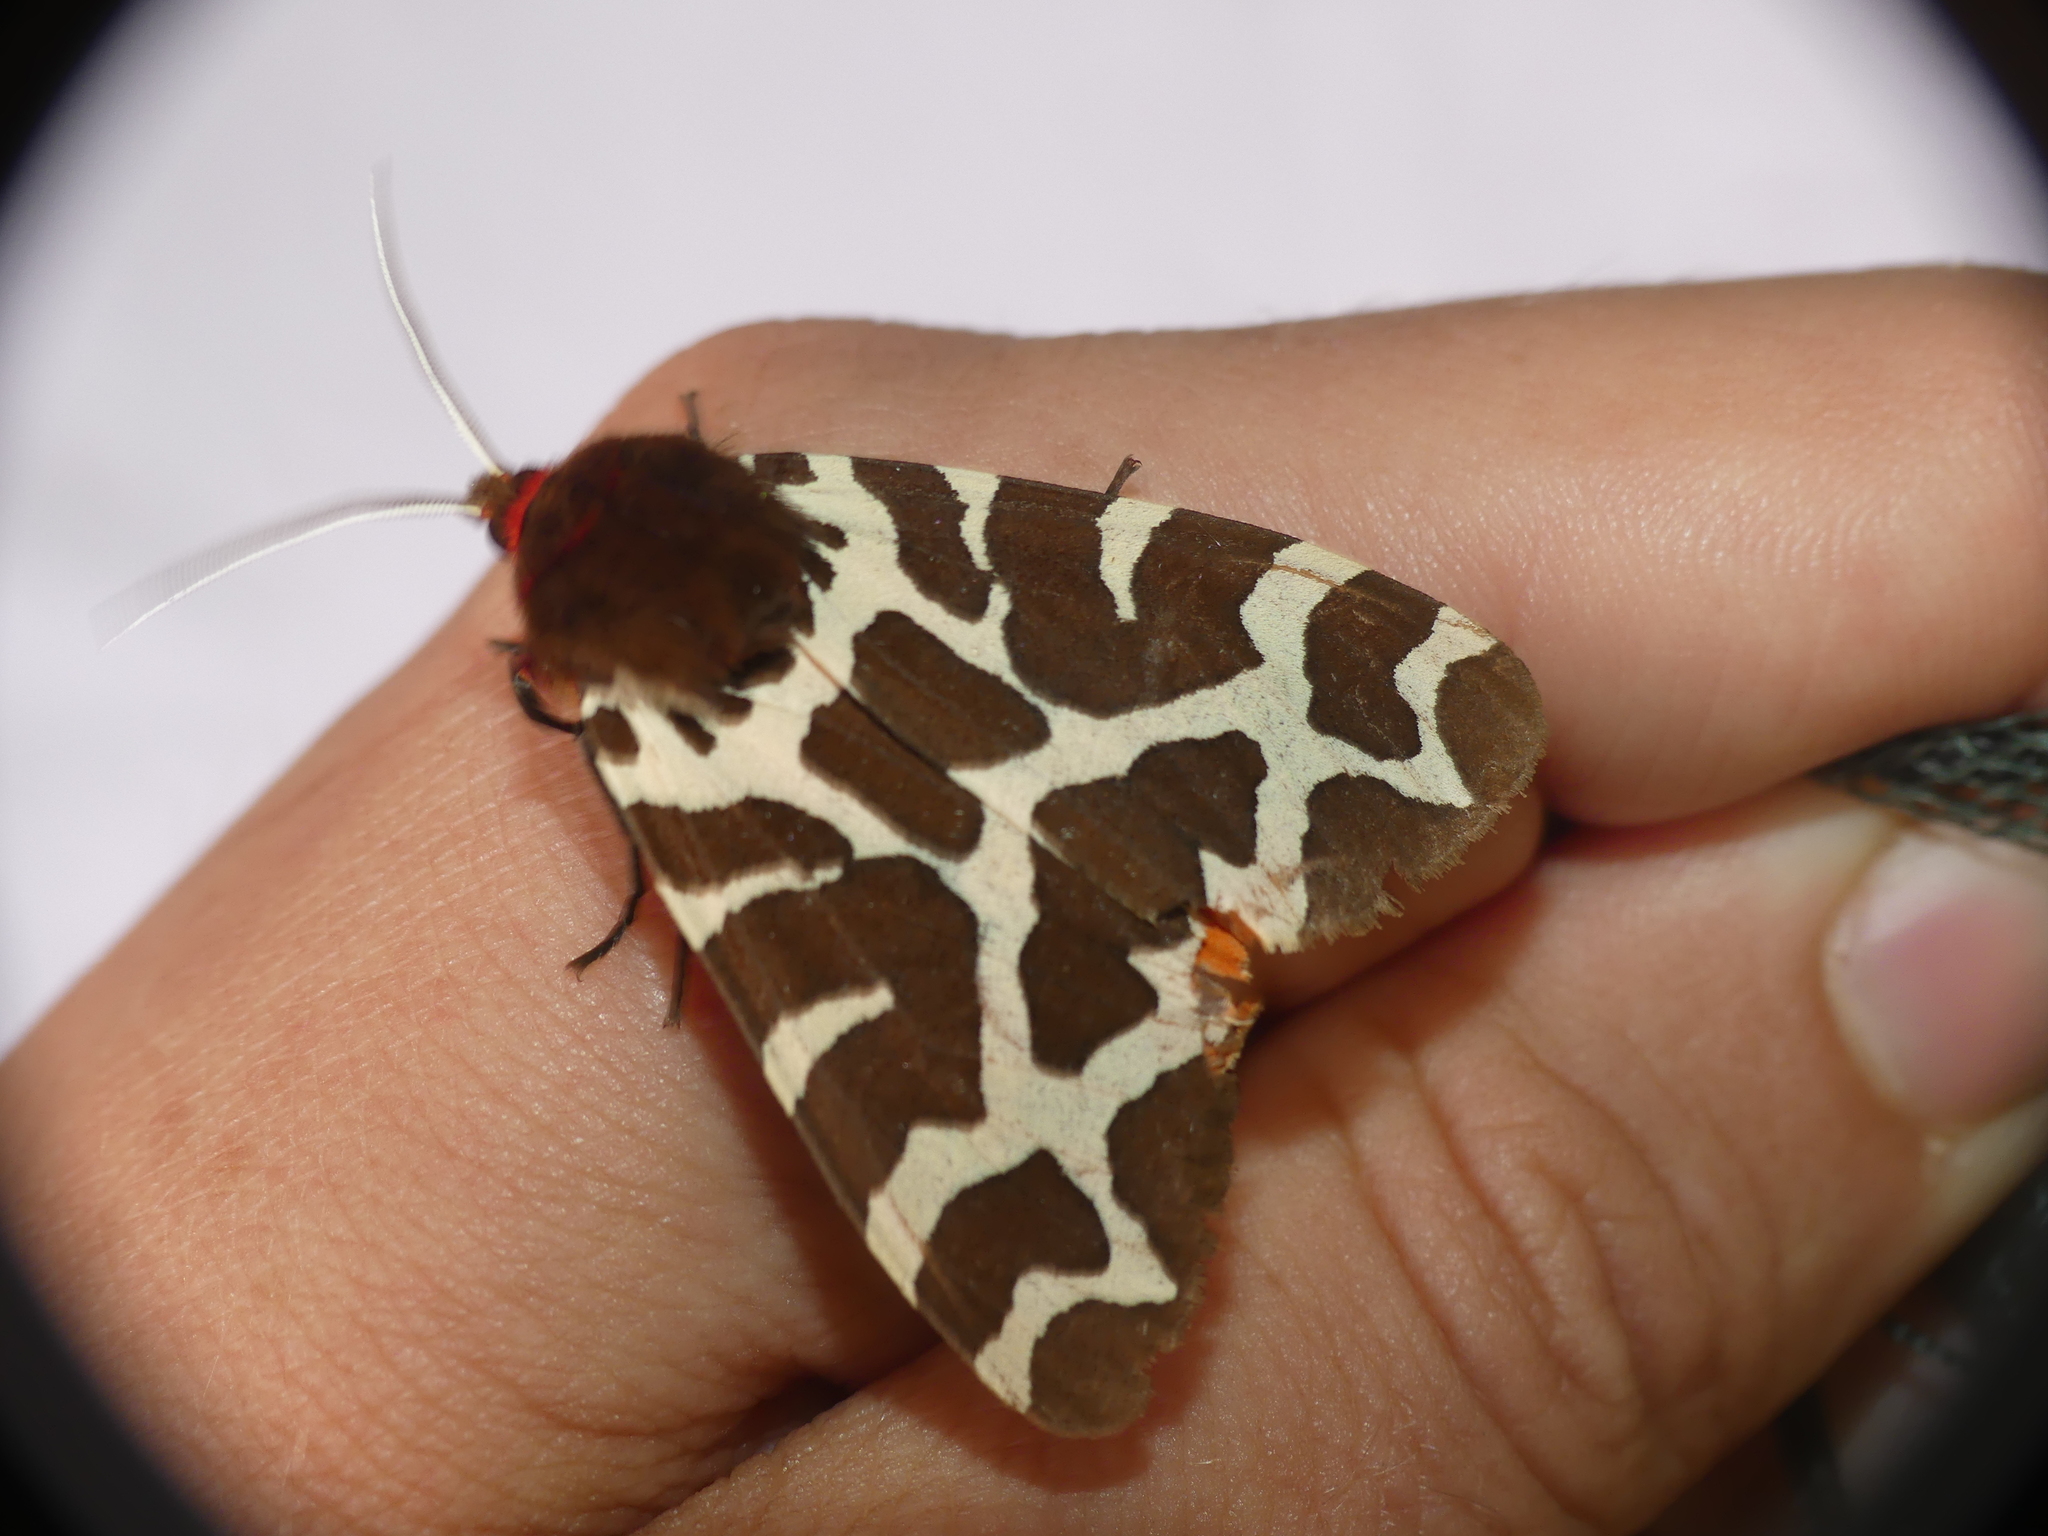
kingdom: Animalia
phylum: Arthropoda
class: Insecta
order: Lepidoptera
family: Erebidae
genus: Arctia
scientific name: Arctia caja
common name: Garden tiger
